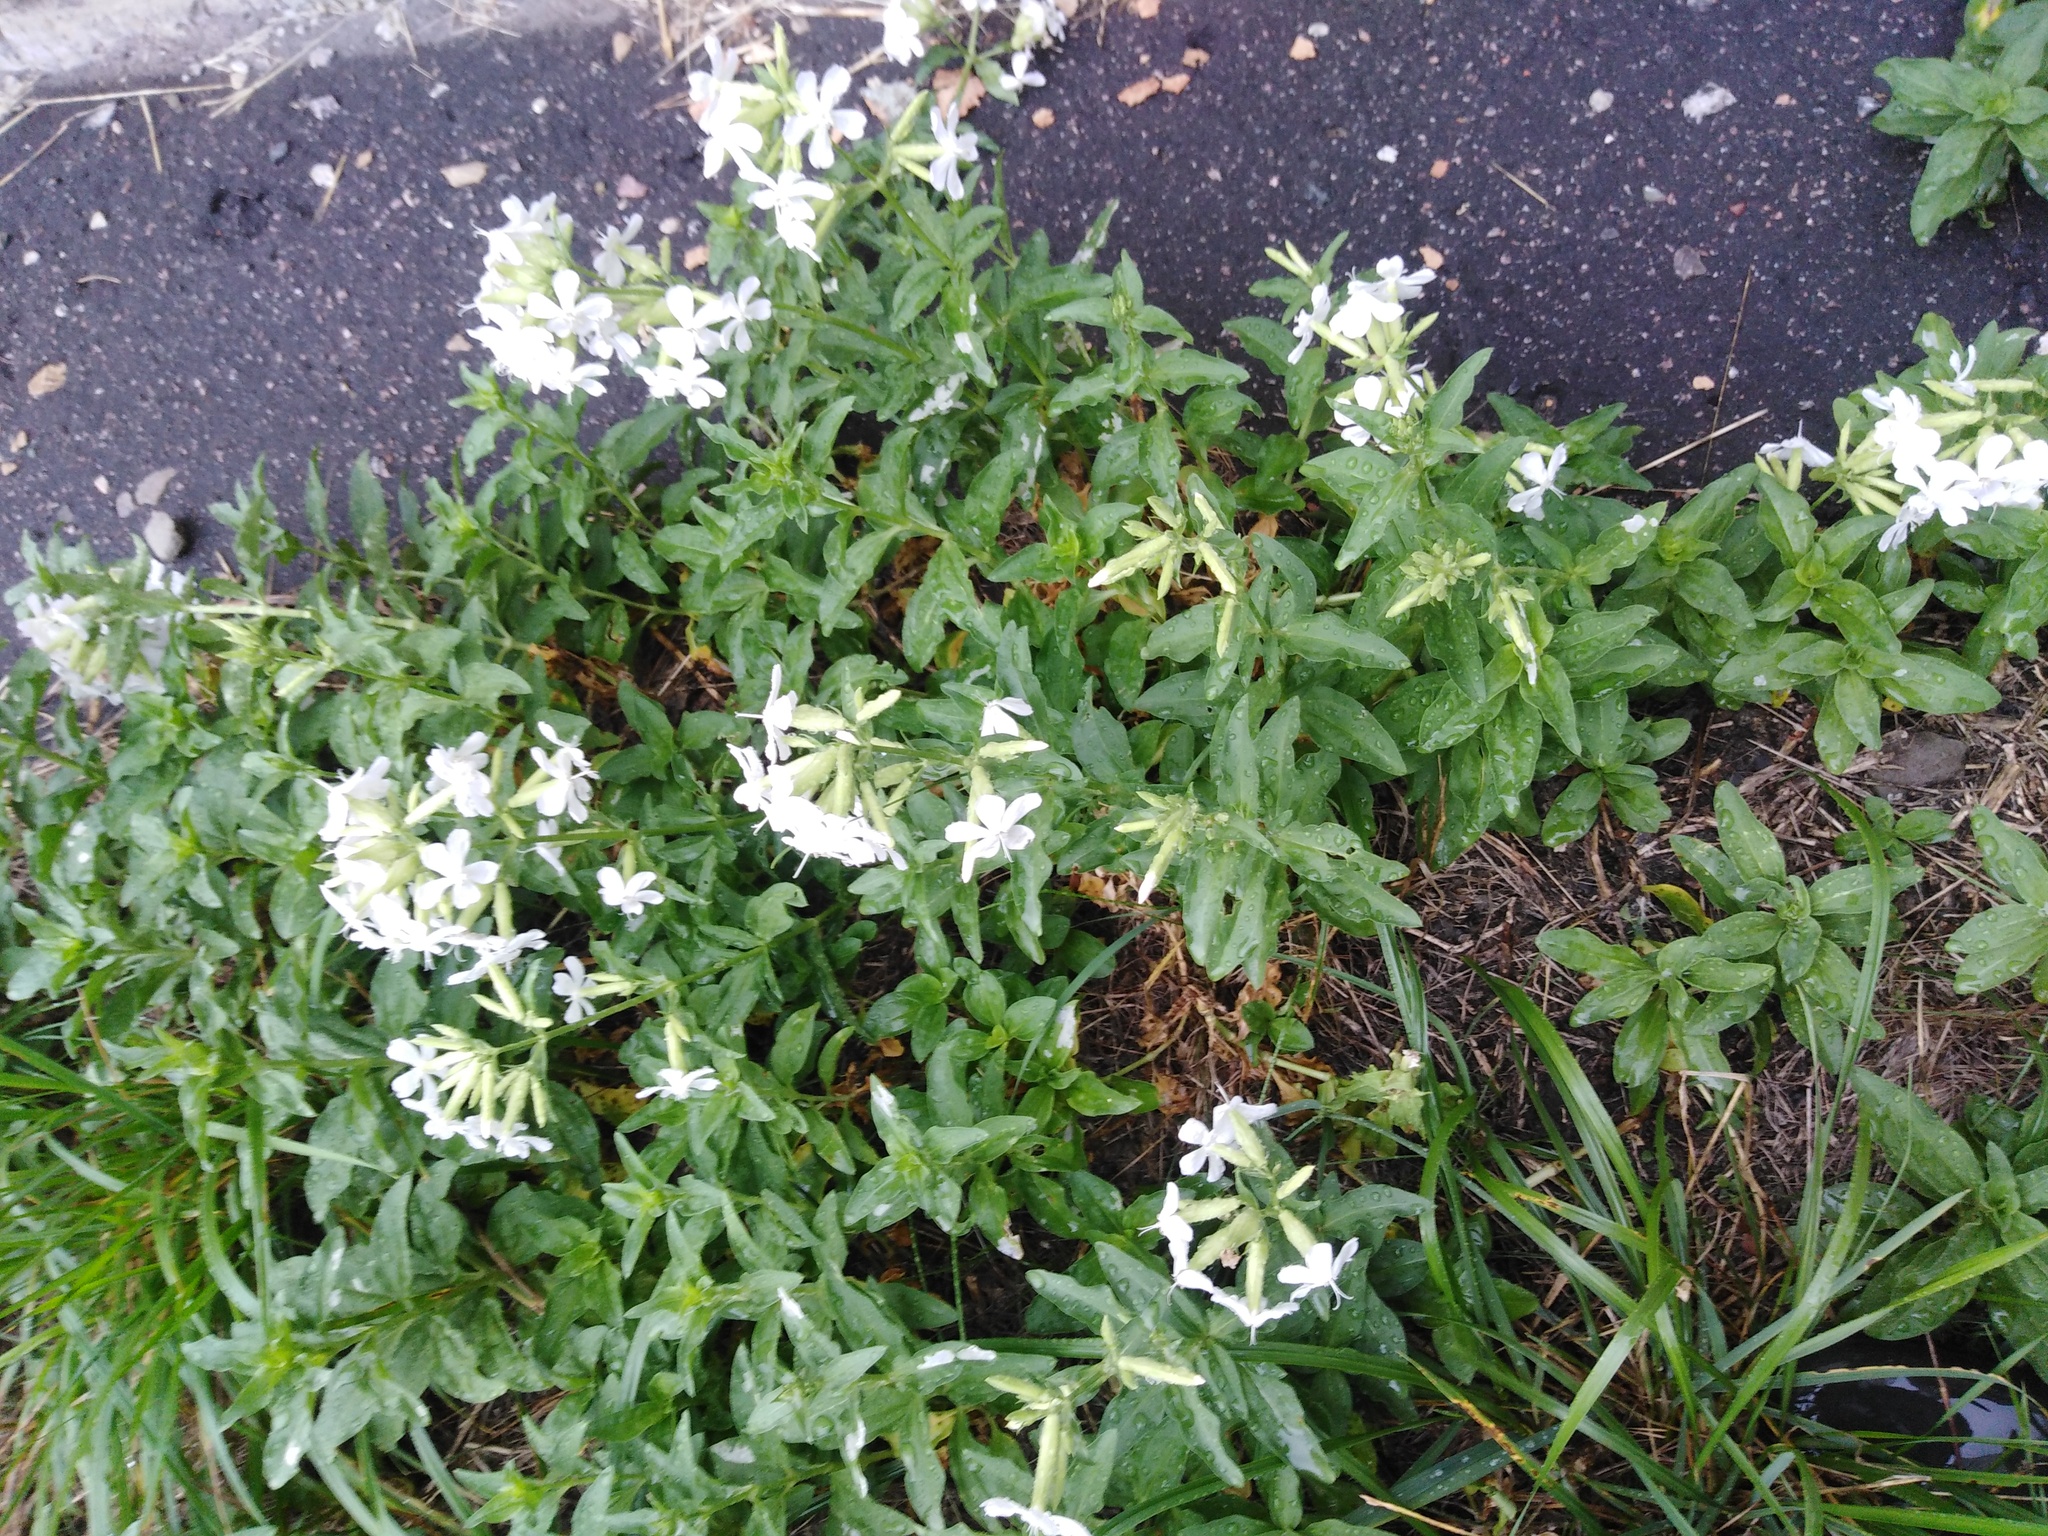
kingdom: Plantae
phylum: Tracheophyta
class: Magnoliopsida
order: Caryophyllales
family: Caryophyllaceae
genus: Saponaria
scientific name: Saponaria officinalis
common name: Soapwort
